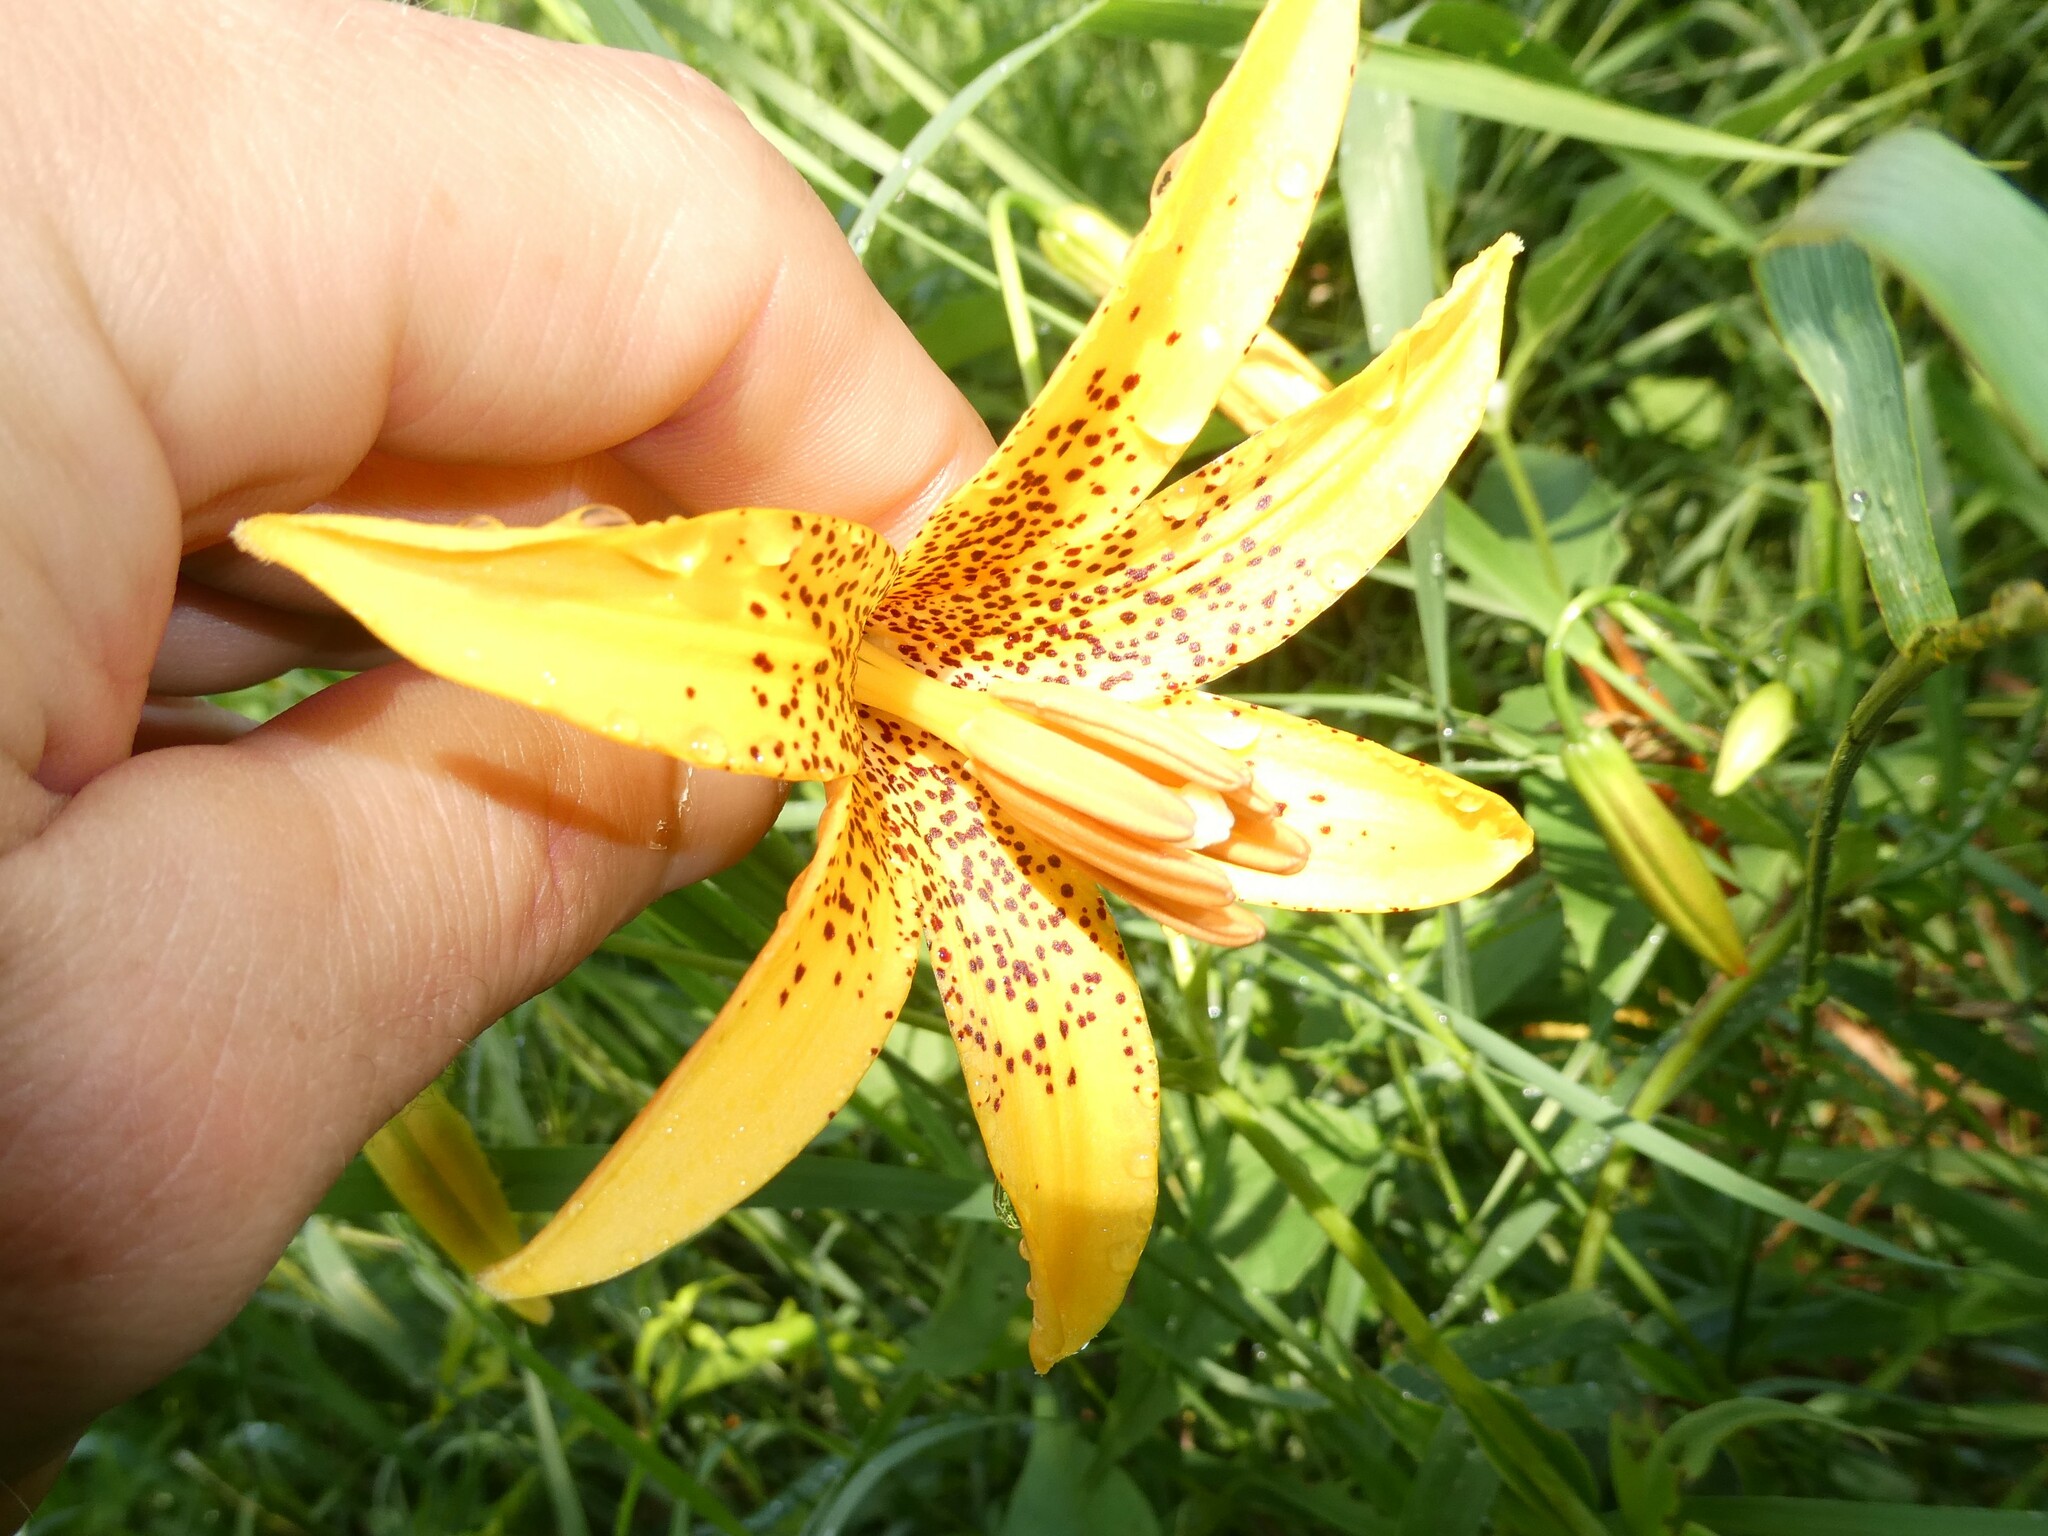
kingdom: Plantae
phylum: Tracheophyta
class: Liliopsida
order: Liliales
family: Liliaceae
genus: Lilium
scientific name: Lilium canadense
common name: Canada lily
